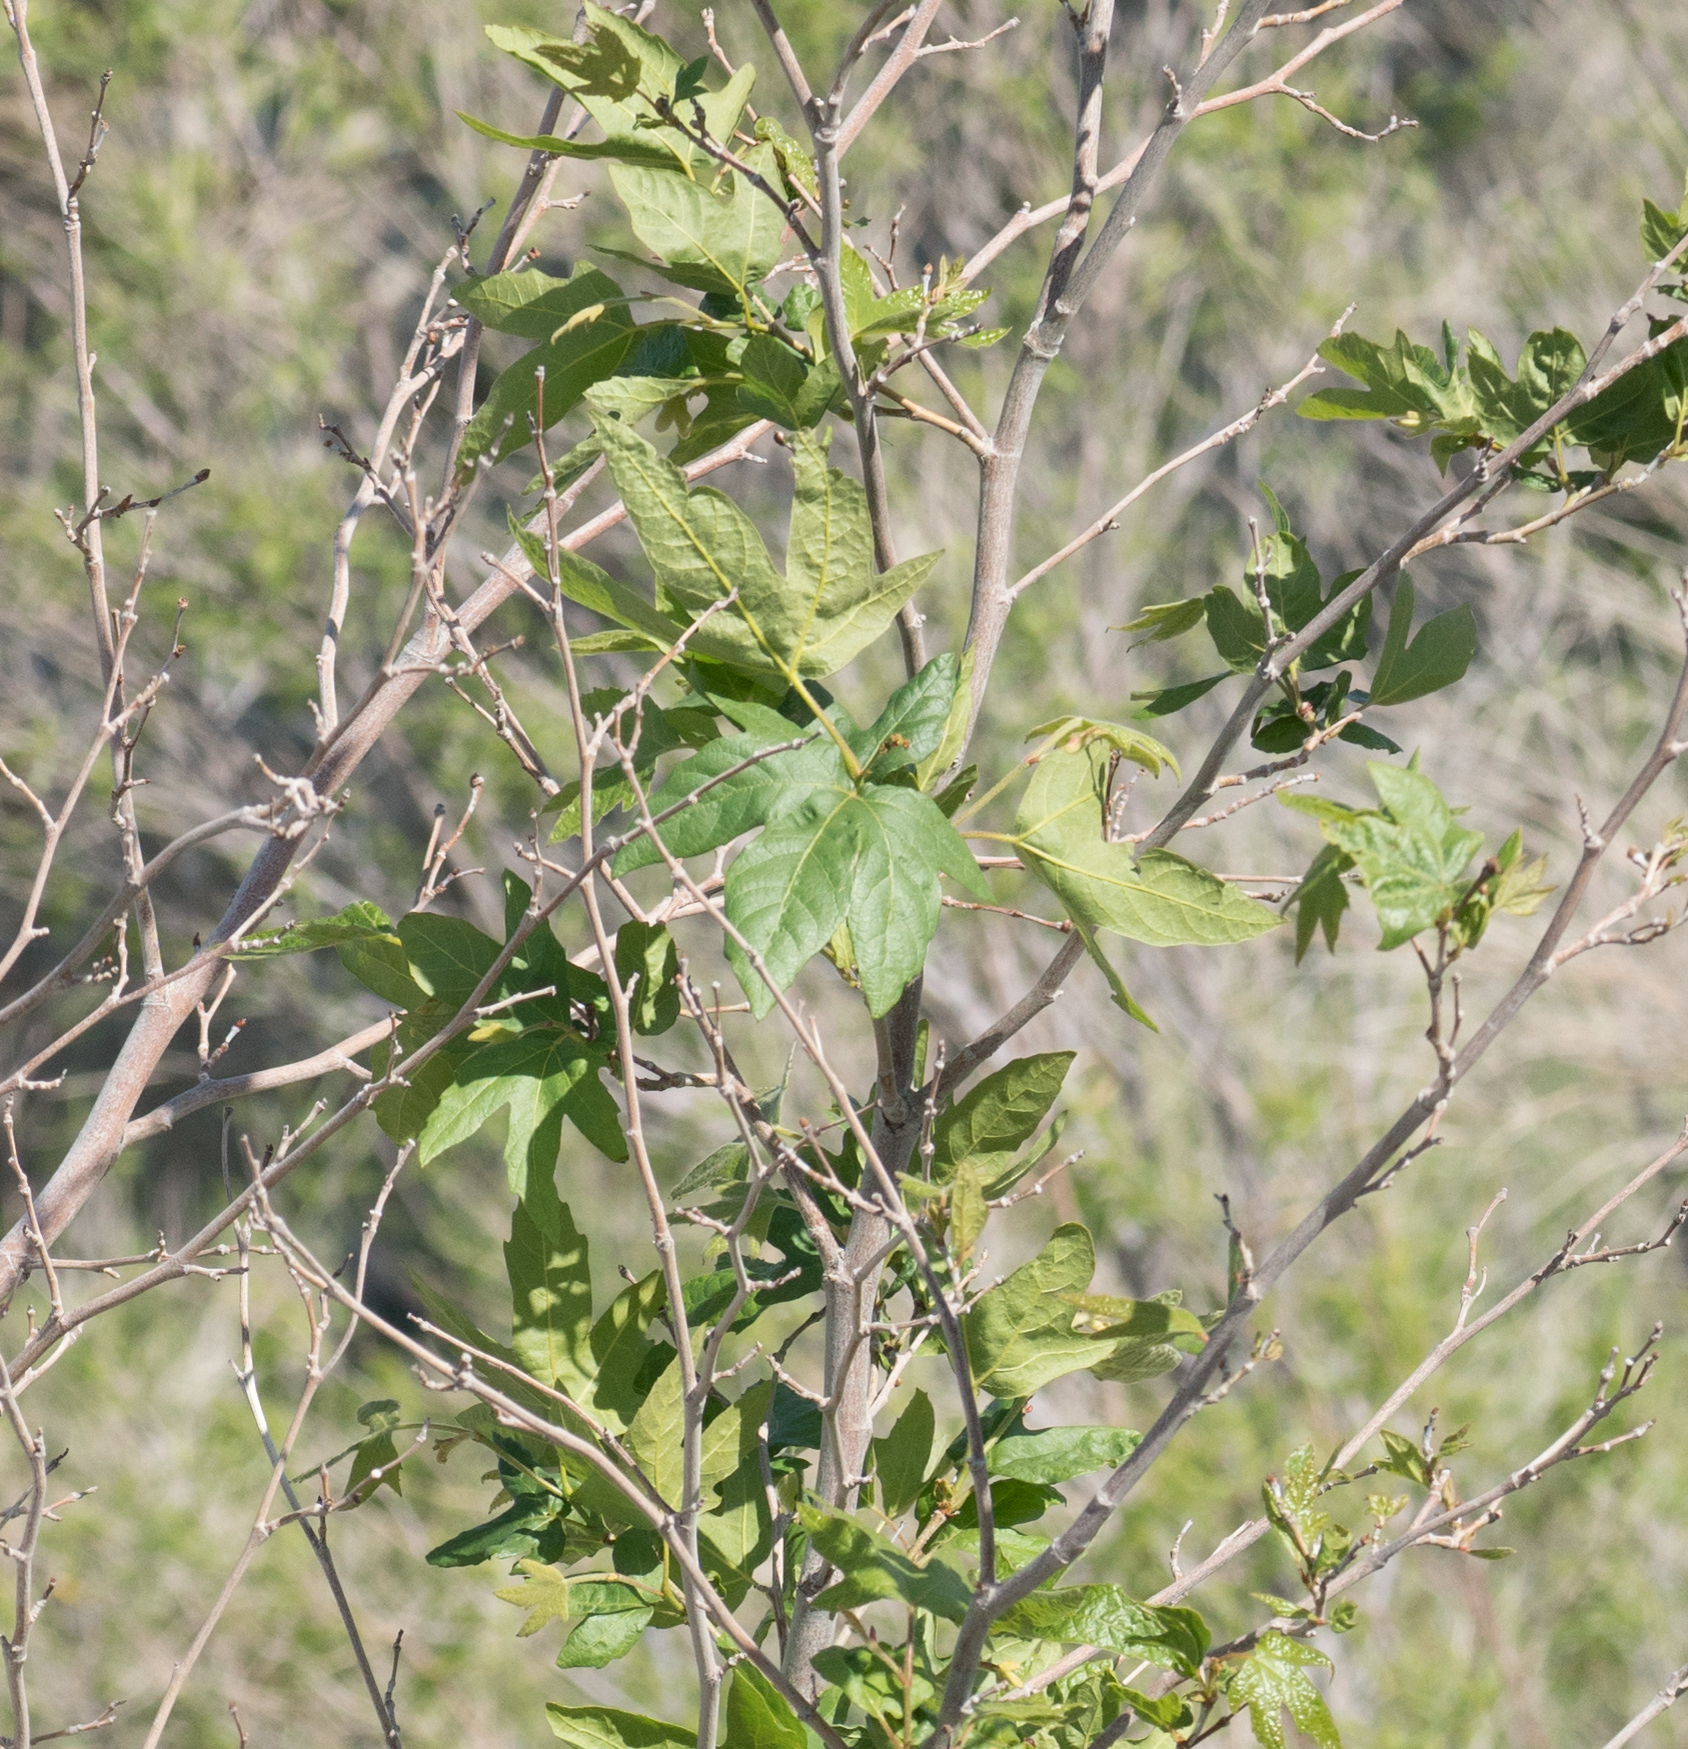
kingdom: Plantae
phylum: Tracheophyta
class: Magnoliopsida
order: Proteales
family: Platanaceae
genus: Platanus
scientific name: Platanus racemosa
